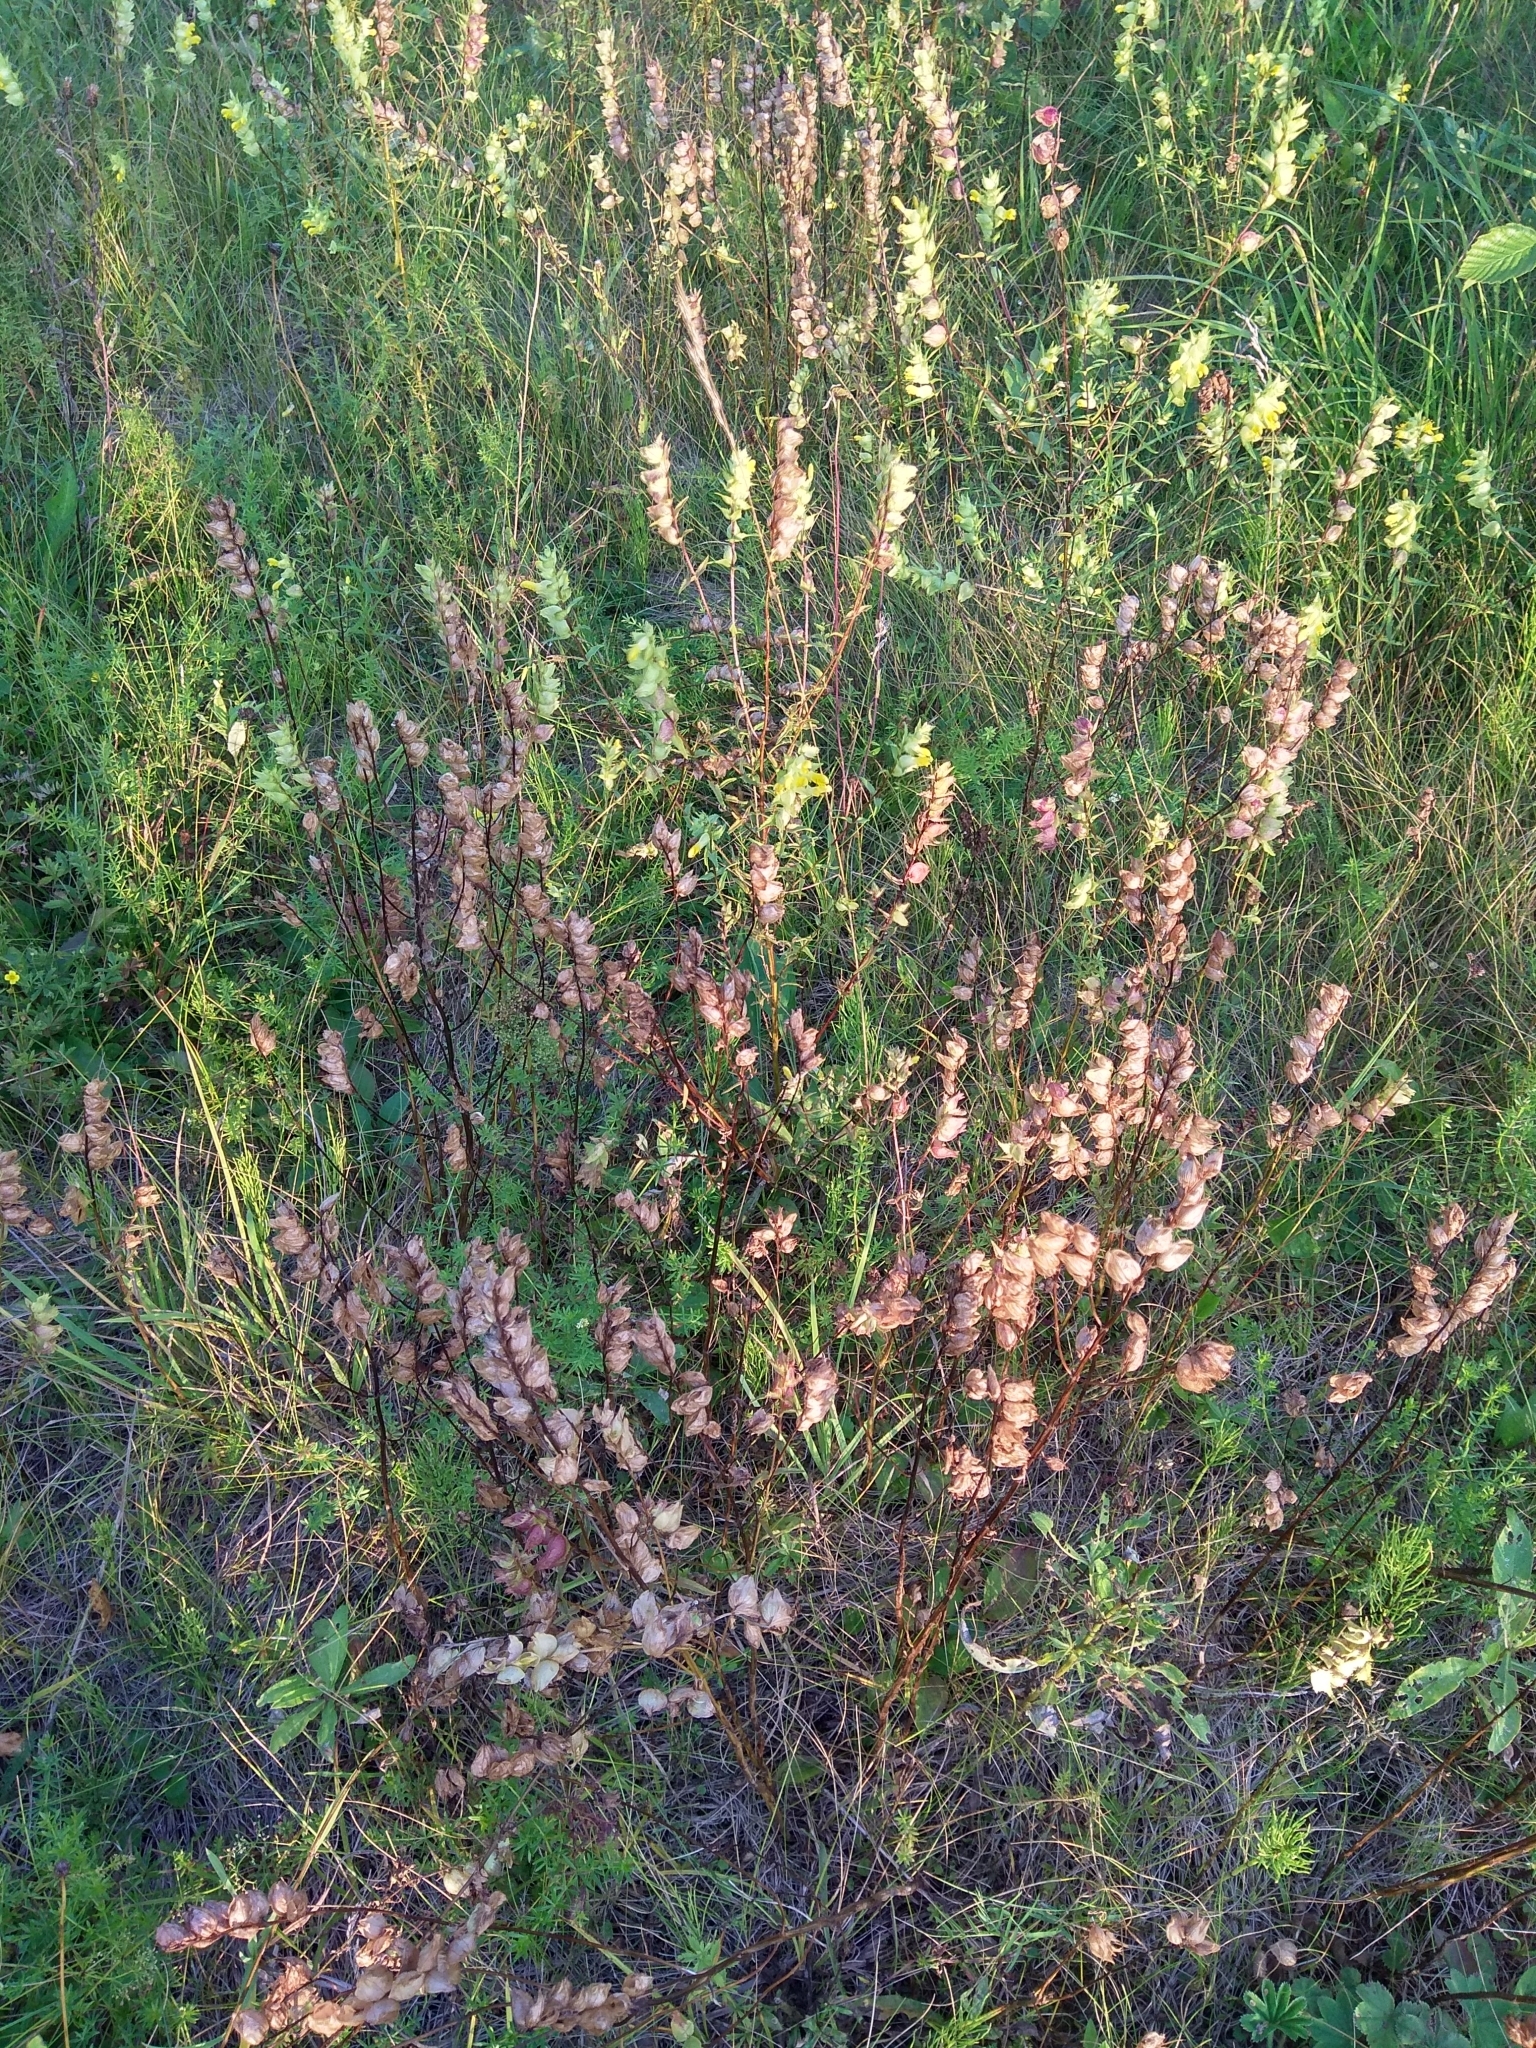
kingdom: Plantae
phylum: Tracheophyta
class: Magnoliopsida
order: Lamiales
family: Orobanchaceae
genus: Rhinanthus
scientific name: Rhinanthus serotinus
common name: Late-flowering yellow rattle
